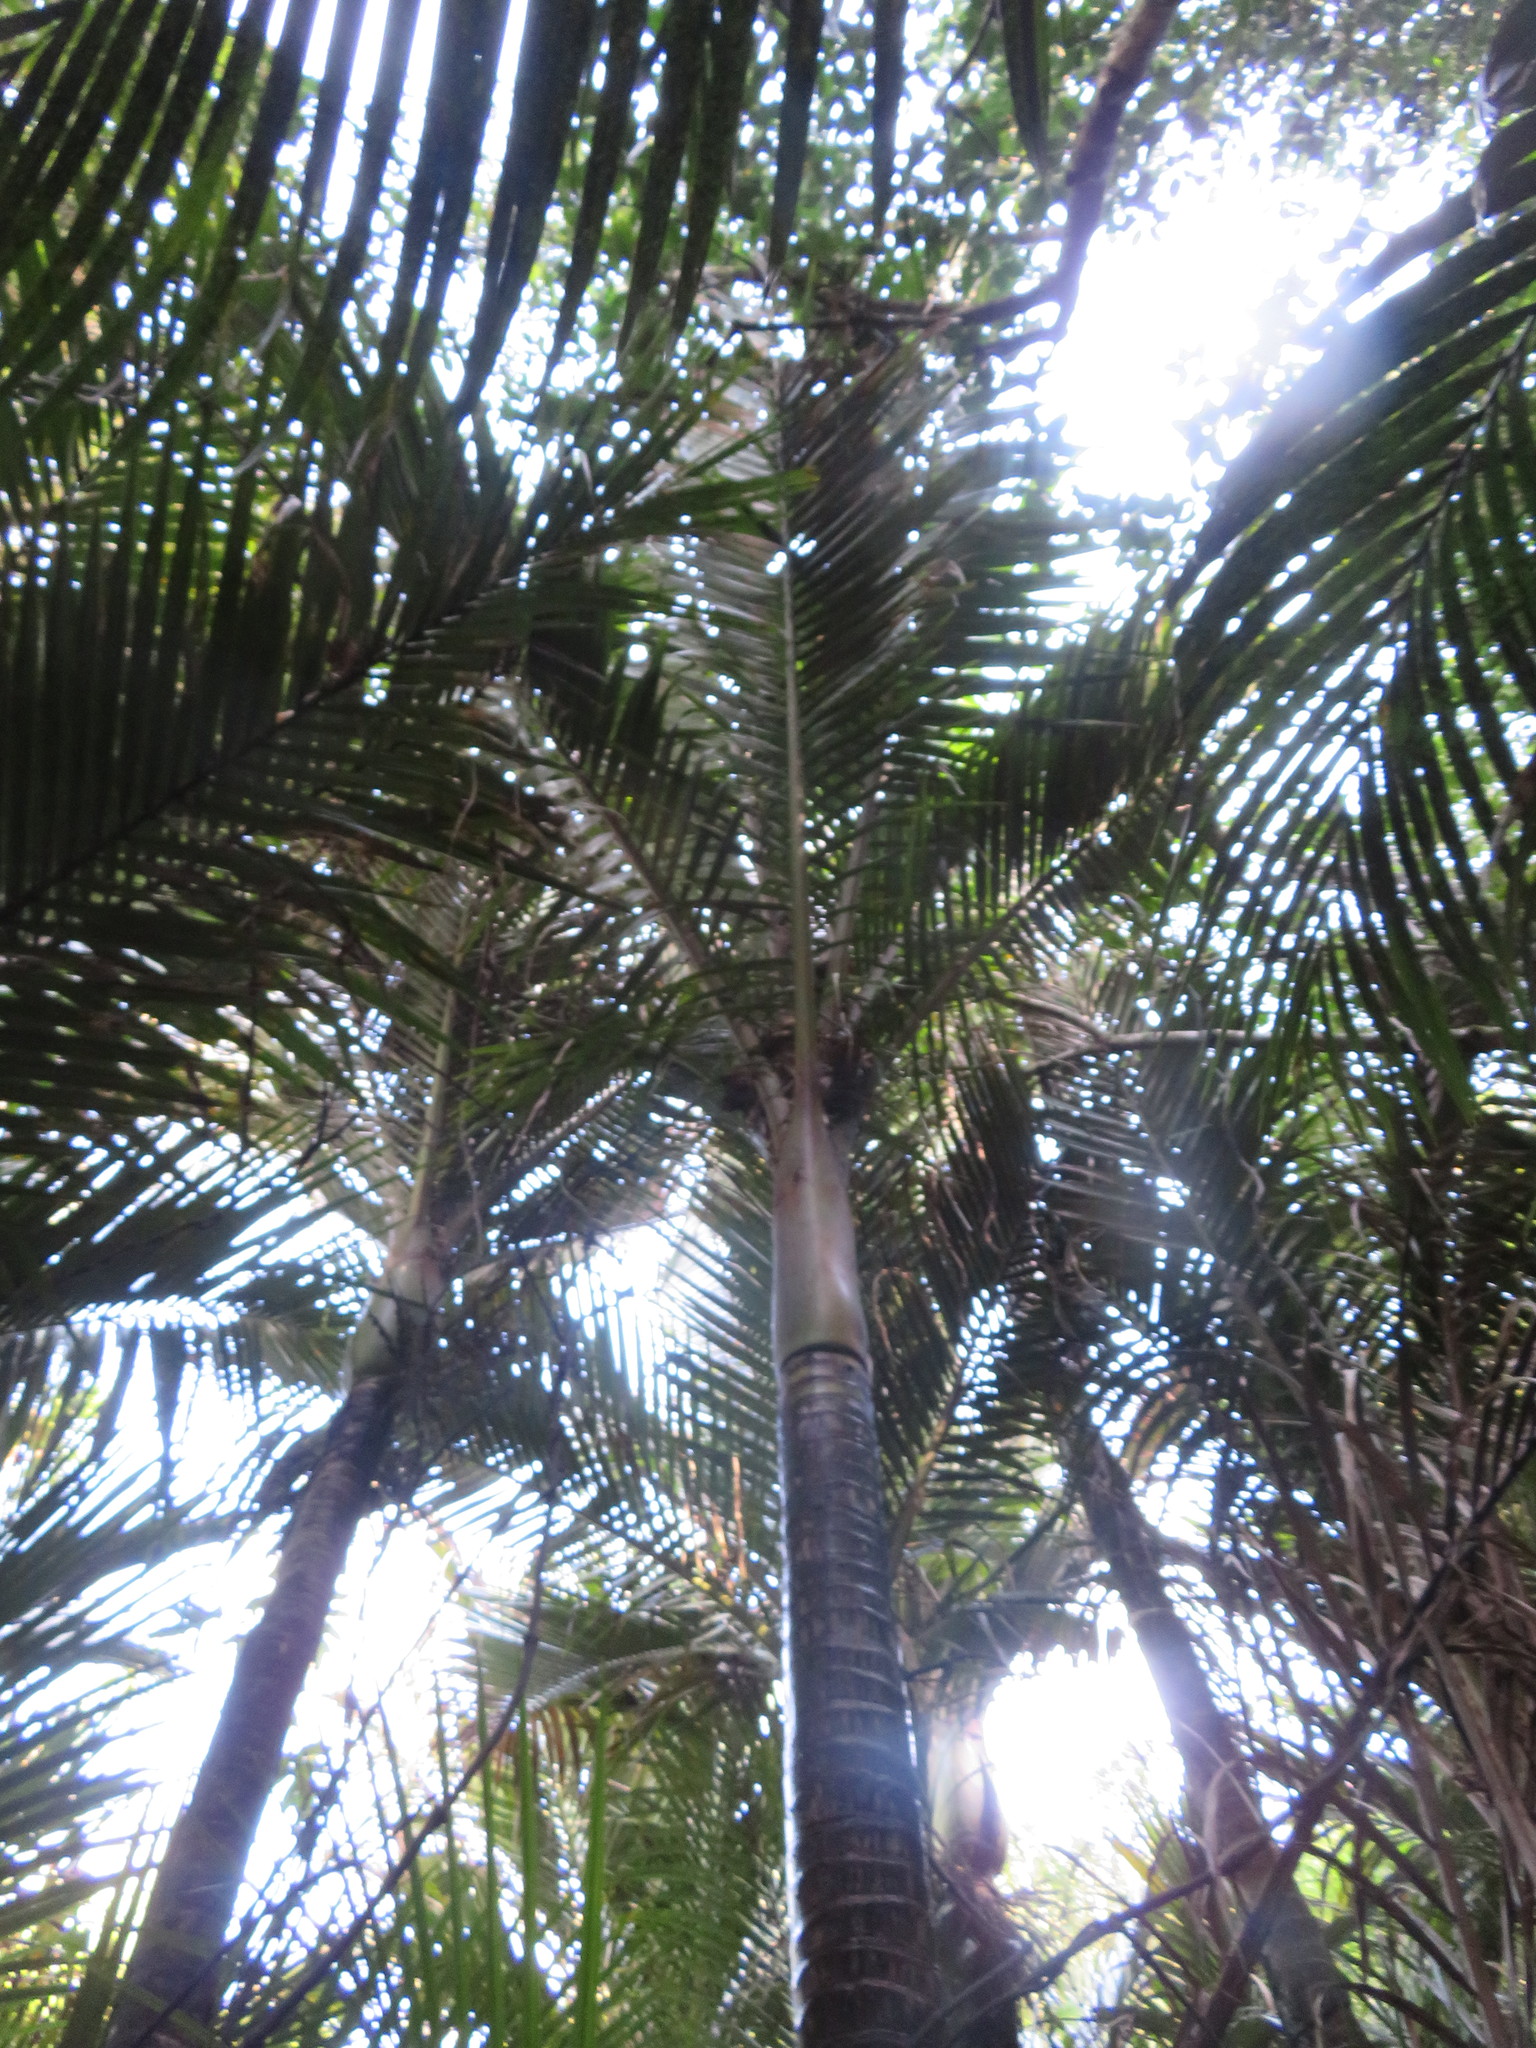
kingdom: Plantae
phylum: Tracheophyta
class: Liliopsida
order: Arecales
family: Arecaceae
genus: Rhopalostylis
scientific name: Rhopalostylis sapida
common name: Feather-duster palm
